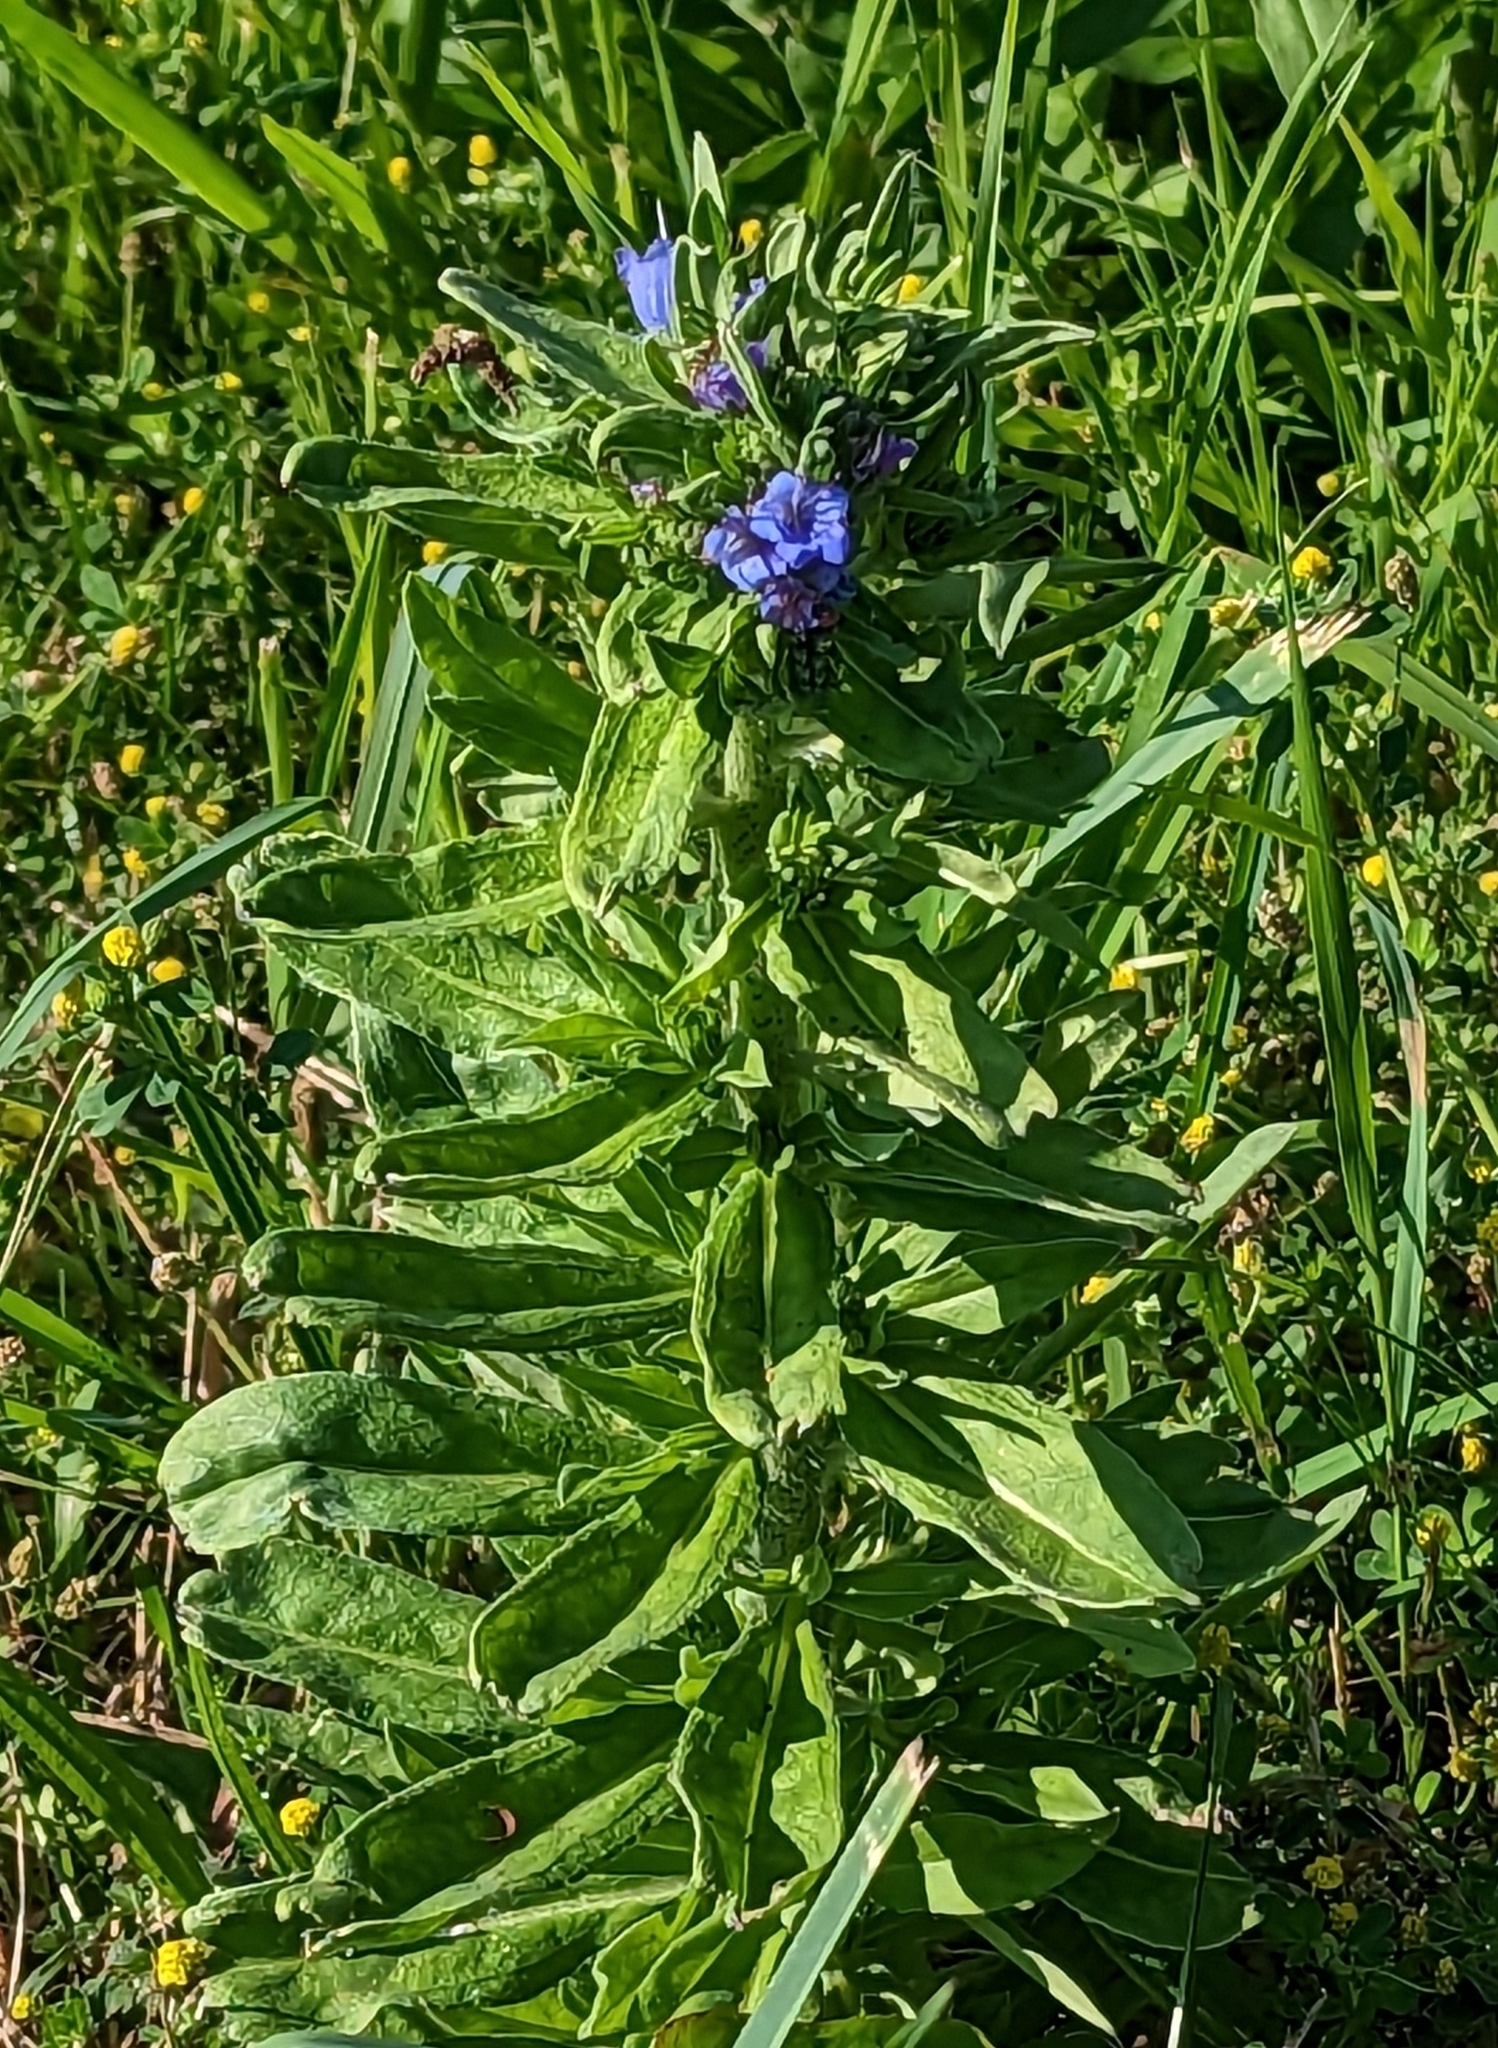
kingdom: Plantae
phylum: Tracheophyta
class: Magnoliopsida
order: Boraginales
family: Boraginaceae
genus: Echium
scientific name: Echium vulgare
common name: Common viper's bugloss
